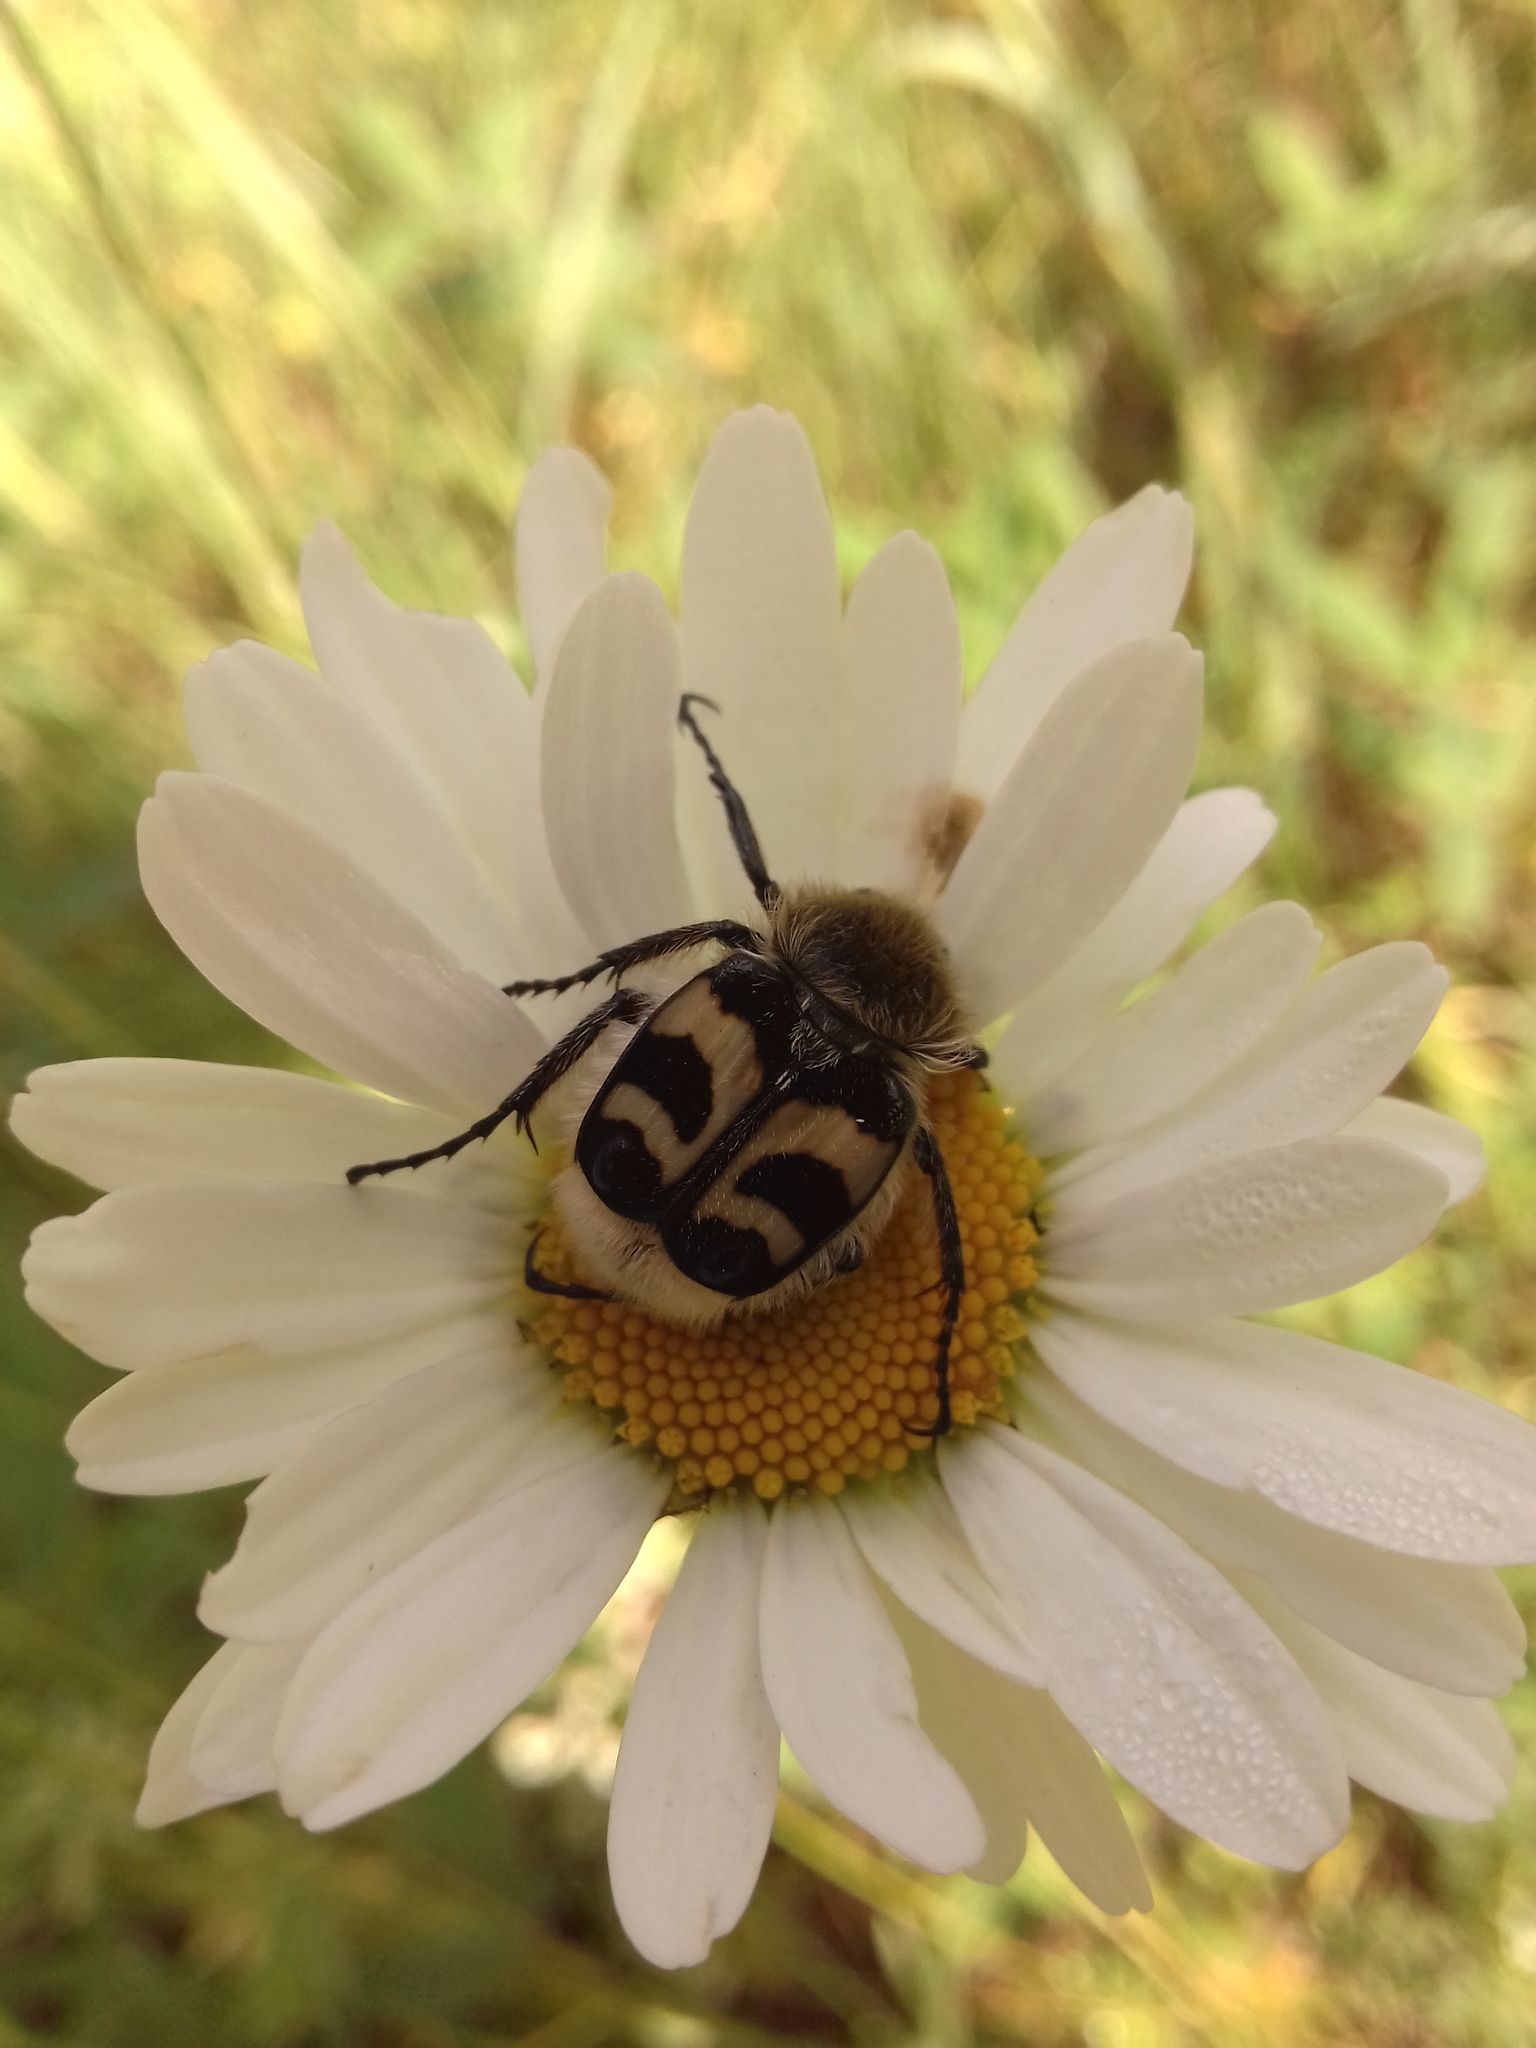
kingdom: Animalia
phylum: Arthropoda
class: Insecta
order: Coleoptera
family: Scarabaeidae
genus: Trichius
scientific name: Trichius fasciatus
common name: Bee beetle
